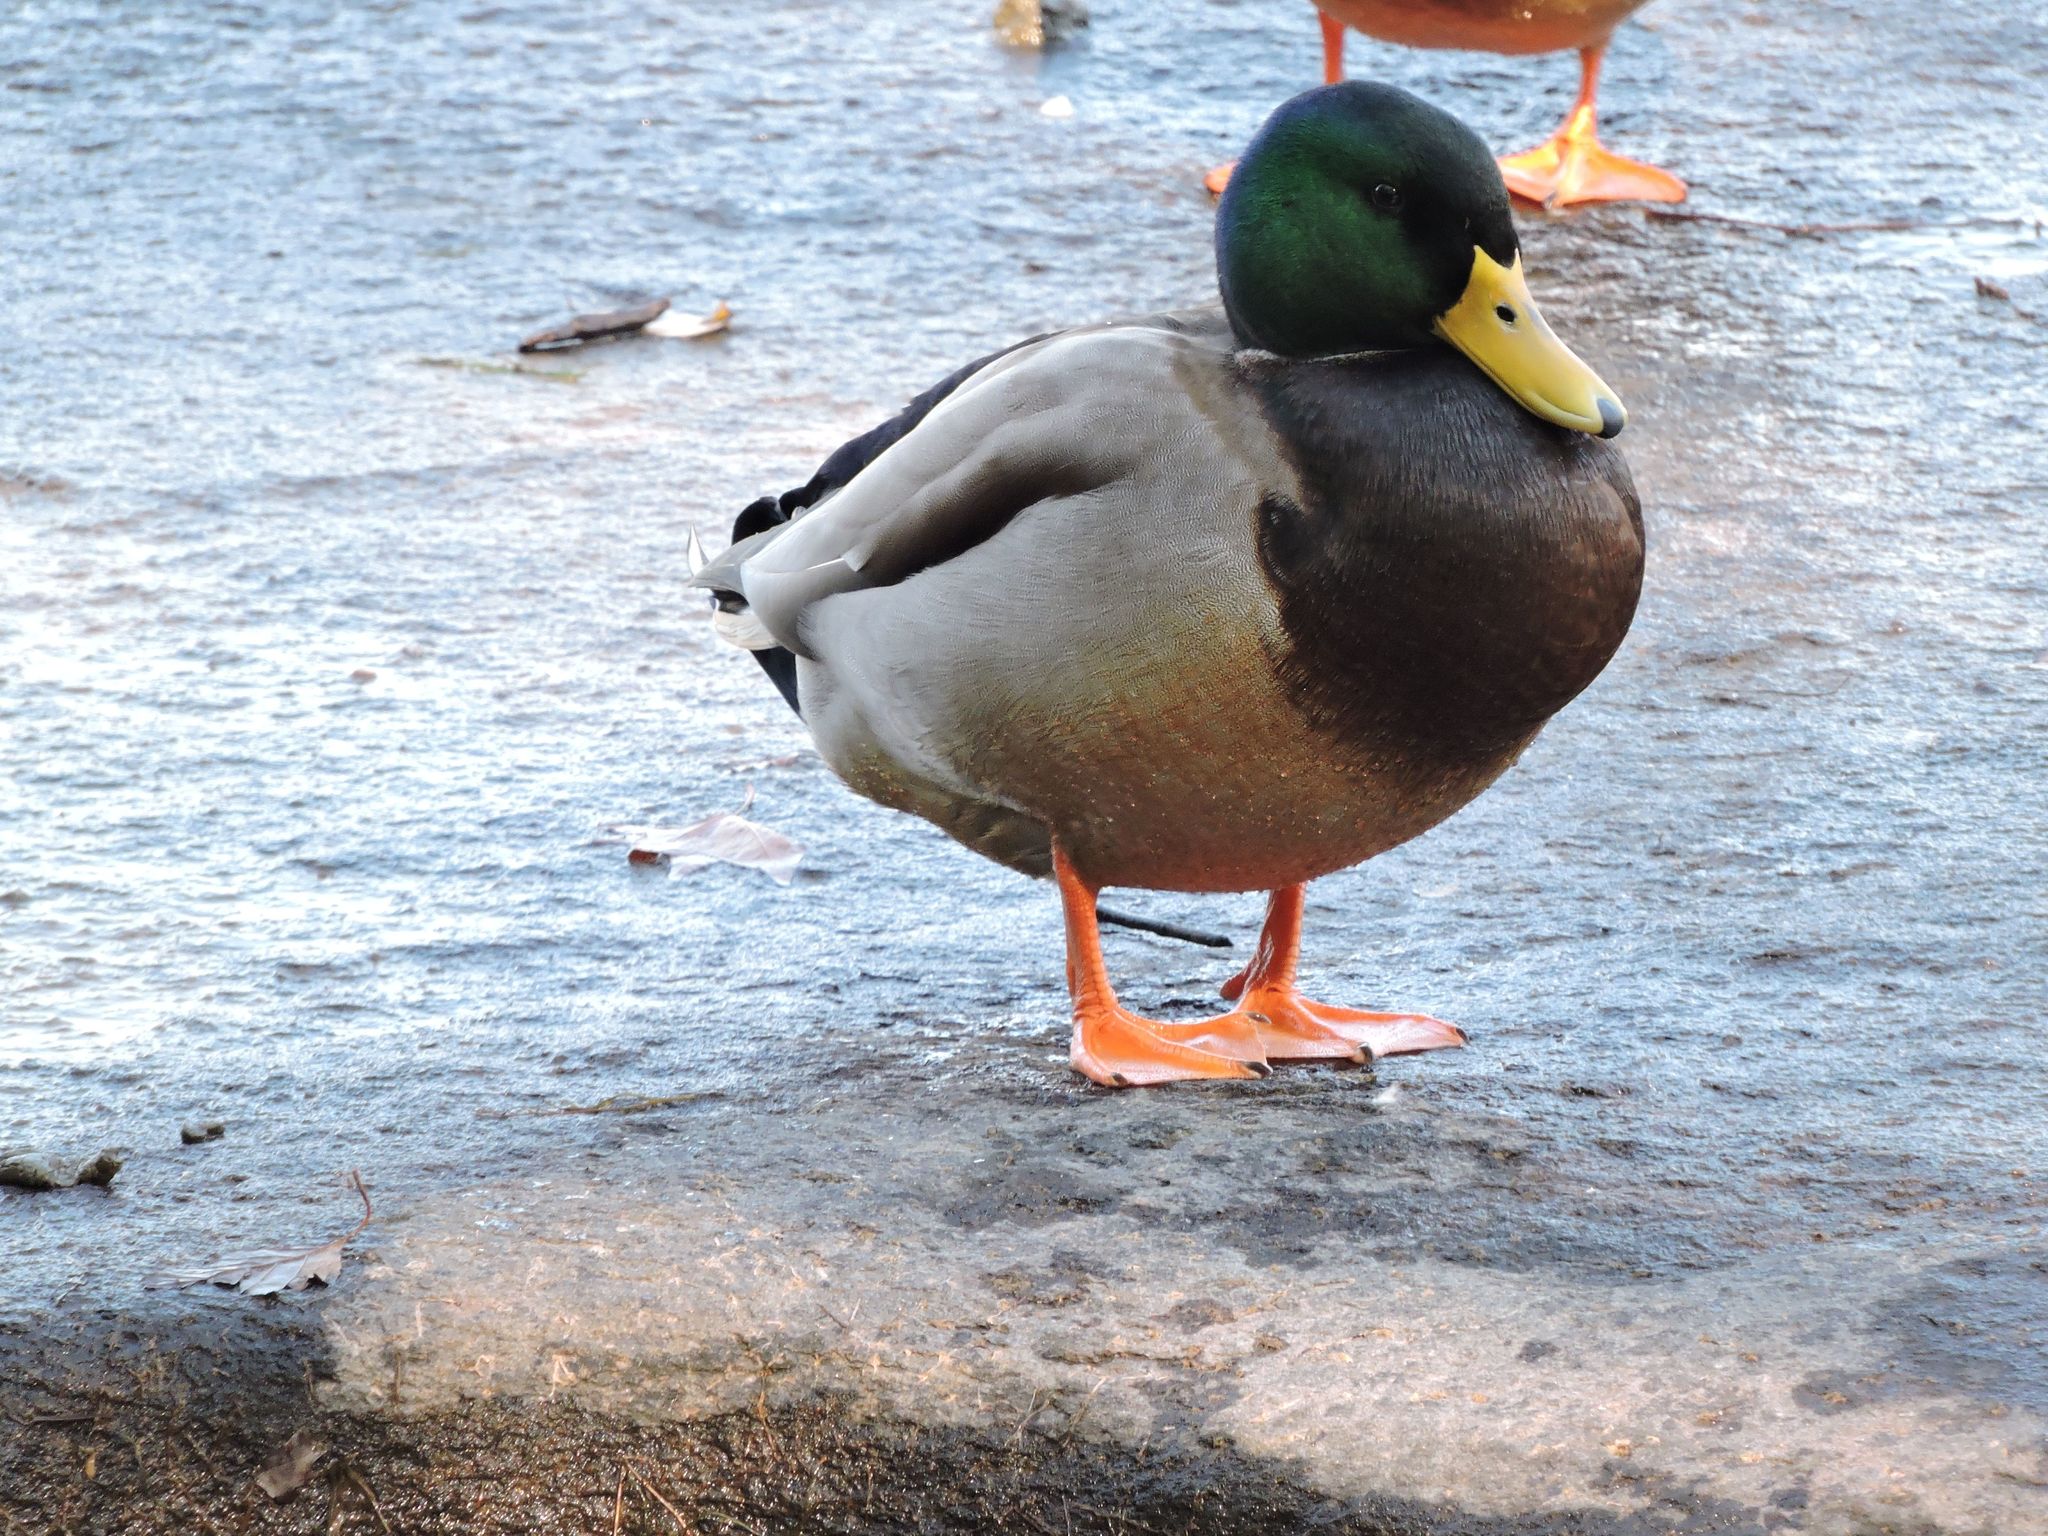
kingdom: Animalia
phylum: Chordata
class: Aves
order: Anseriformes
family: Anatidae
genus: Anas
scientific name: Anas platyrhynchos
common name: Mallard
